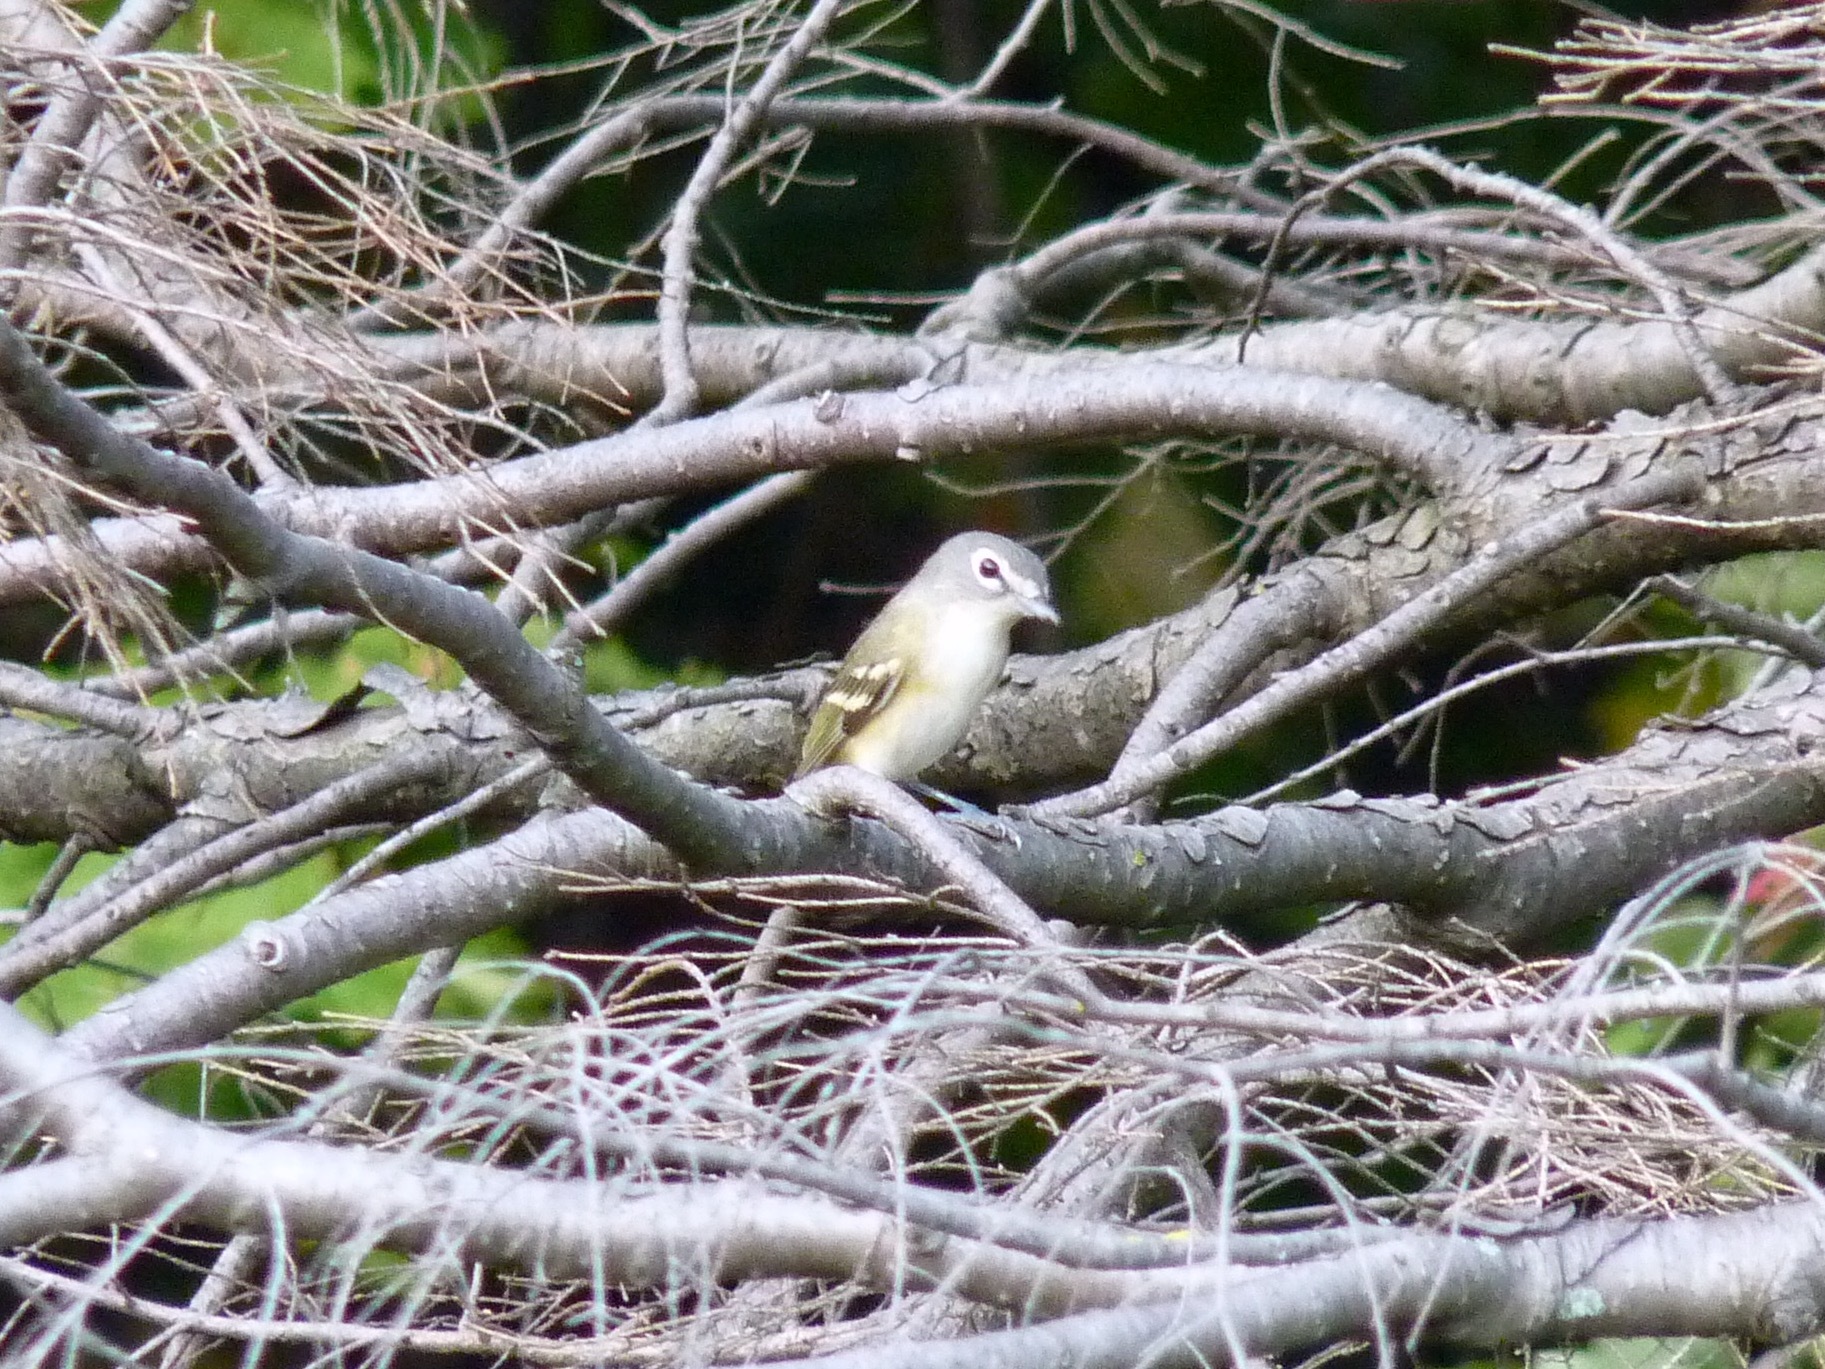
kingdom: Animalia
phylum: Chordata
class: Aves
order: Passeriformes
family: Vireonidae
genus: Vireo
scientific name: Vireo solitarius
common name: Blue-headed vireo
